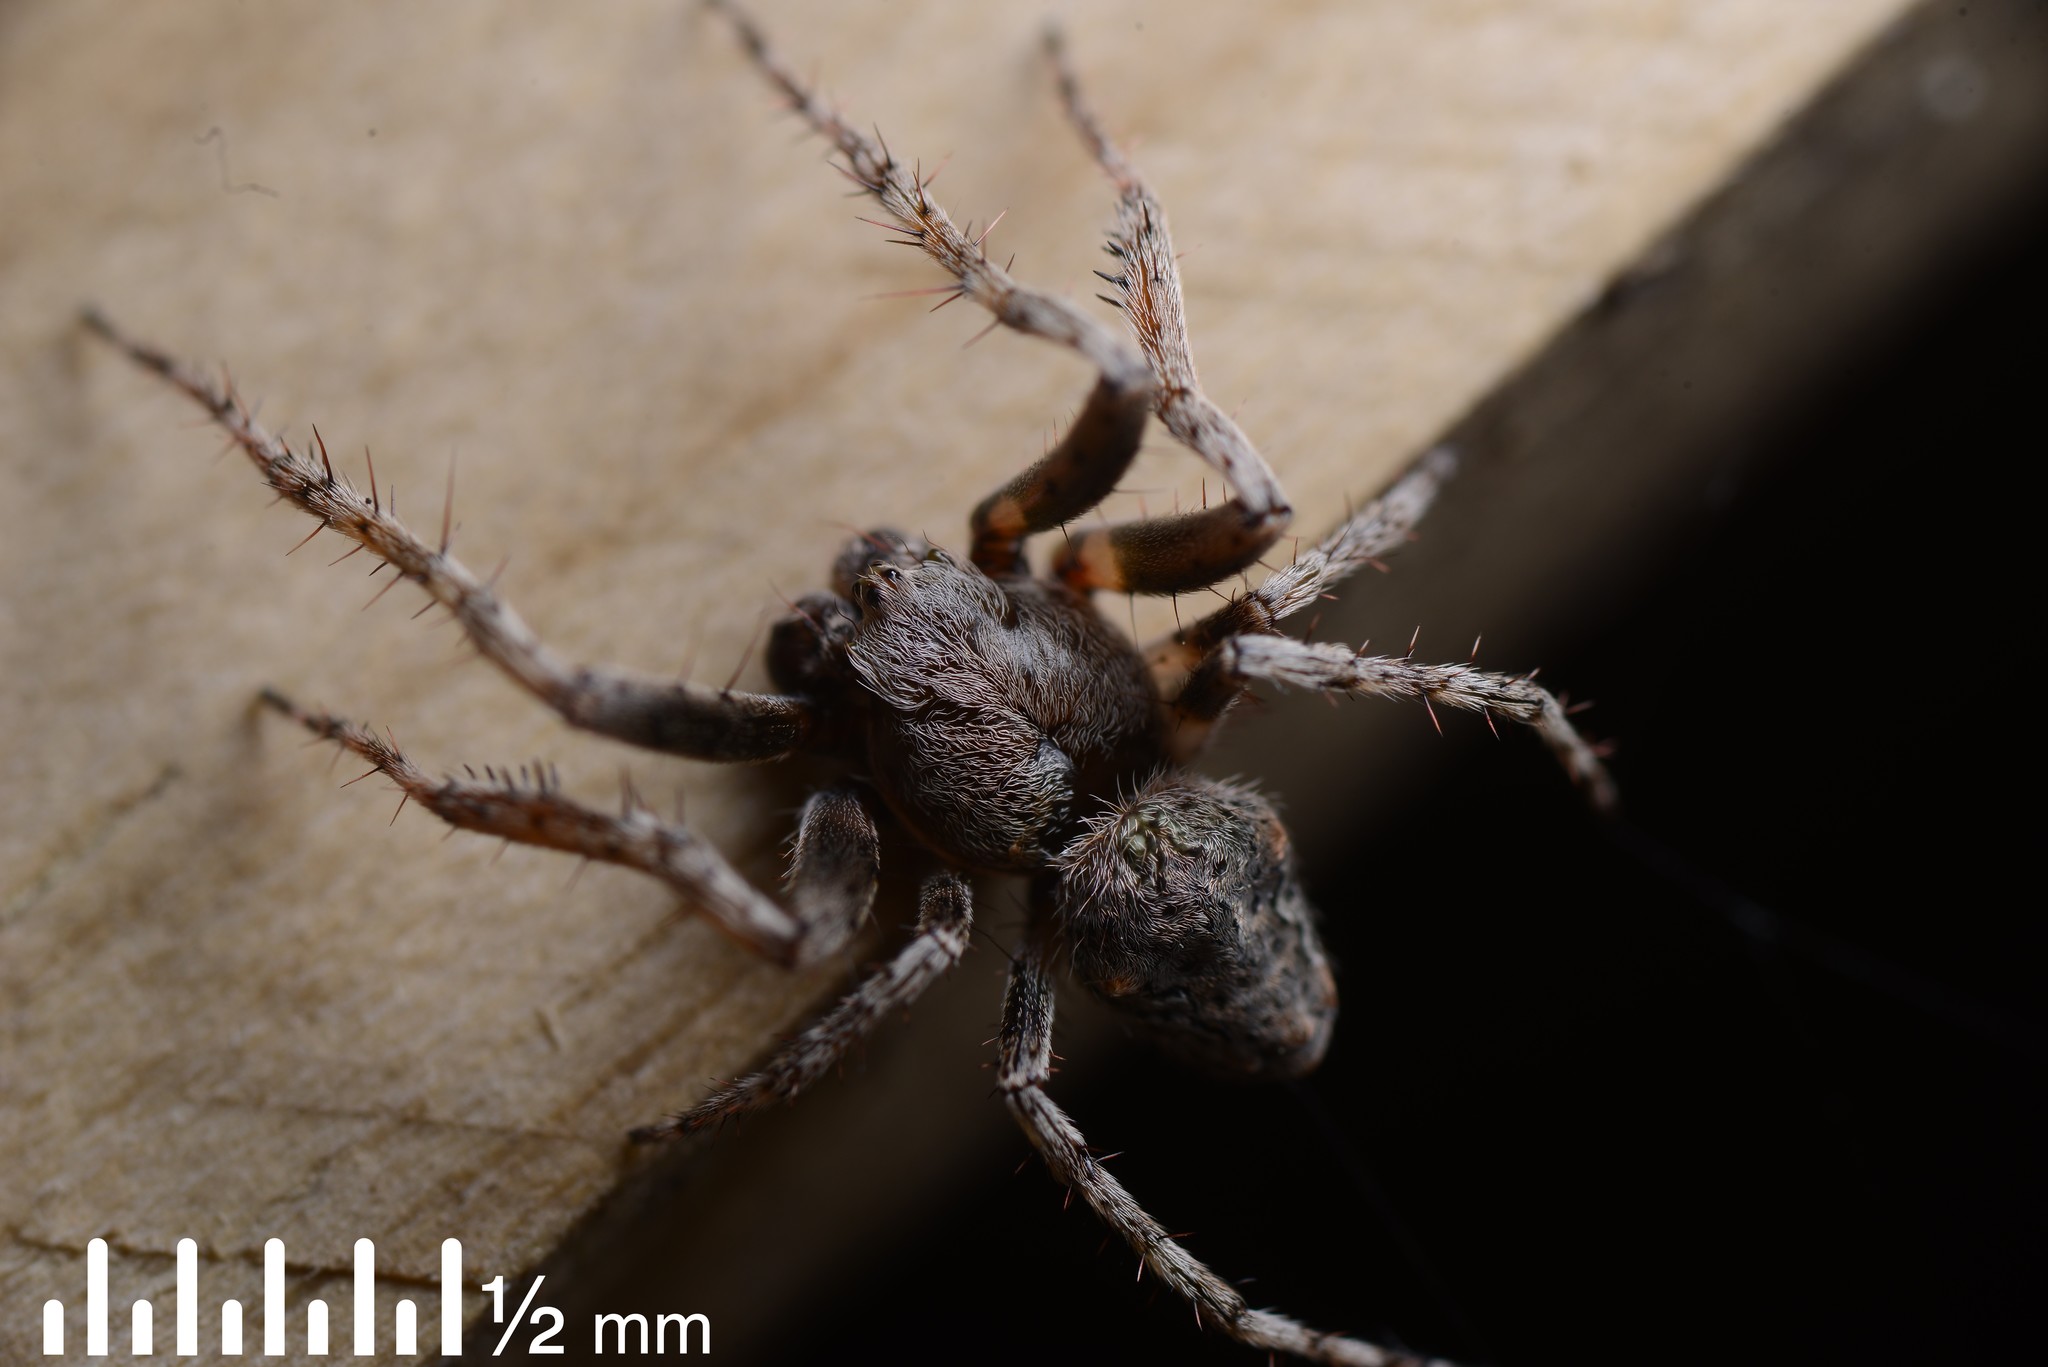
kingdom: Animalia
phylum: Arthropoda
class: Arachnida
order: Araneae
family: Araneidae
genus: Eriophora
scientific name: Eriophora pustulosa
